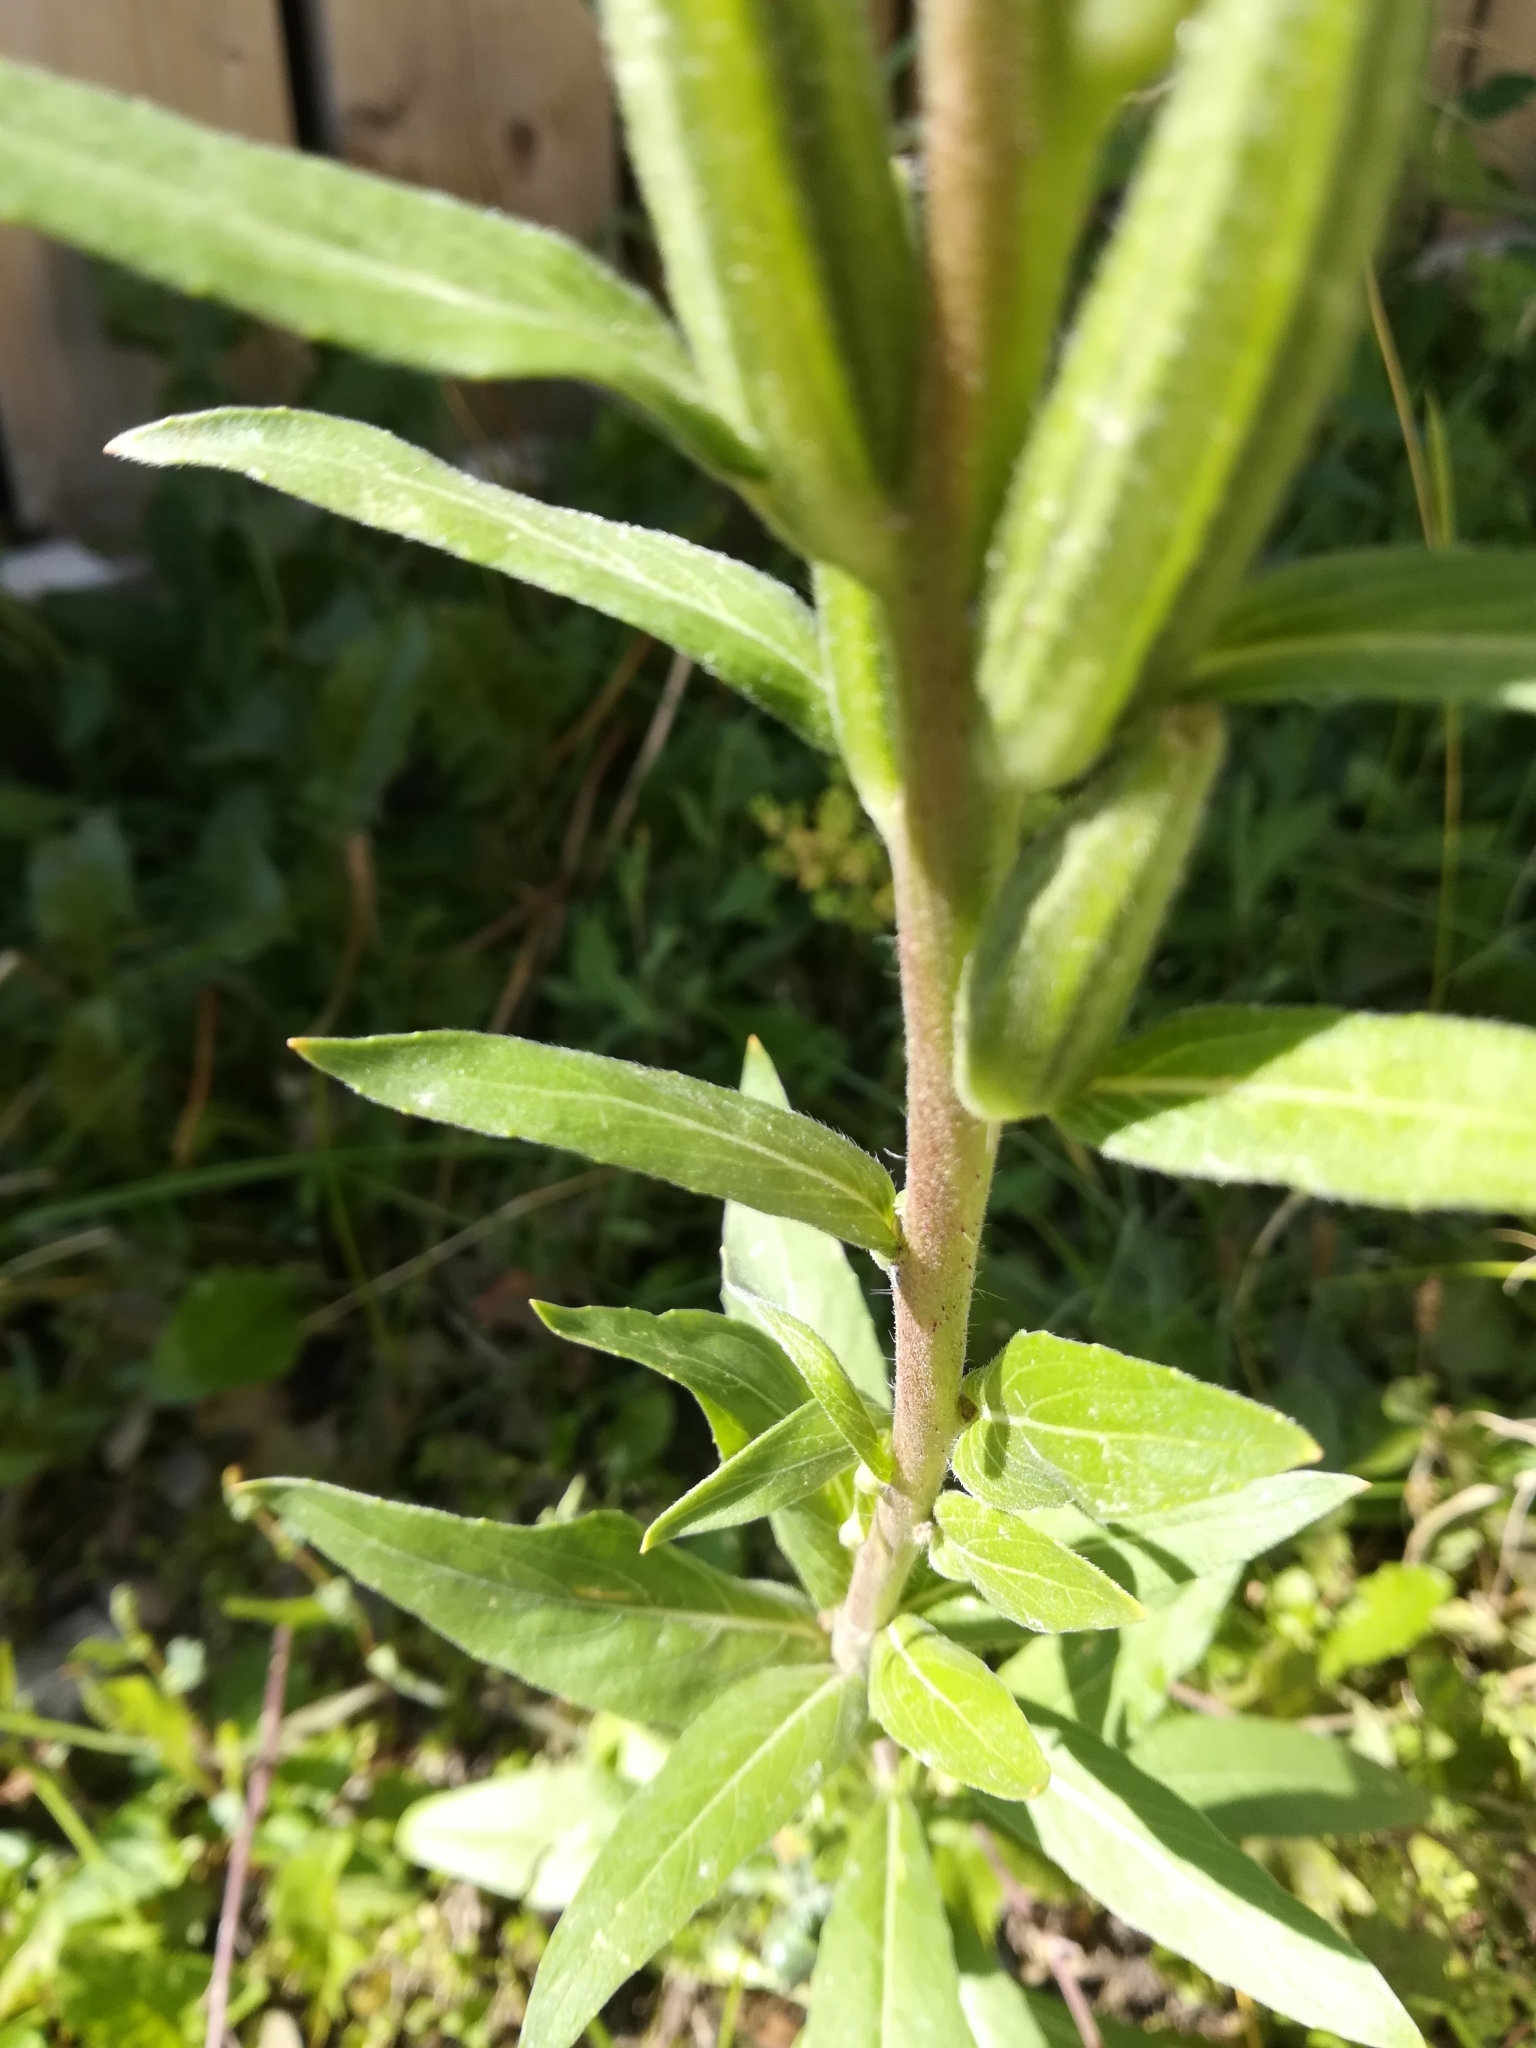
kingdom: Plantae
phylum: Tracheophyta
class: Magnoliopsida
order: Myrtales
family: Onagraceae
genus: Oenothera
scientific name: Oenothera biennis
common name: Common evening-primrose
